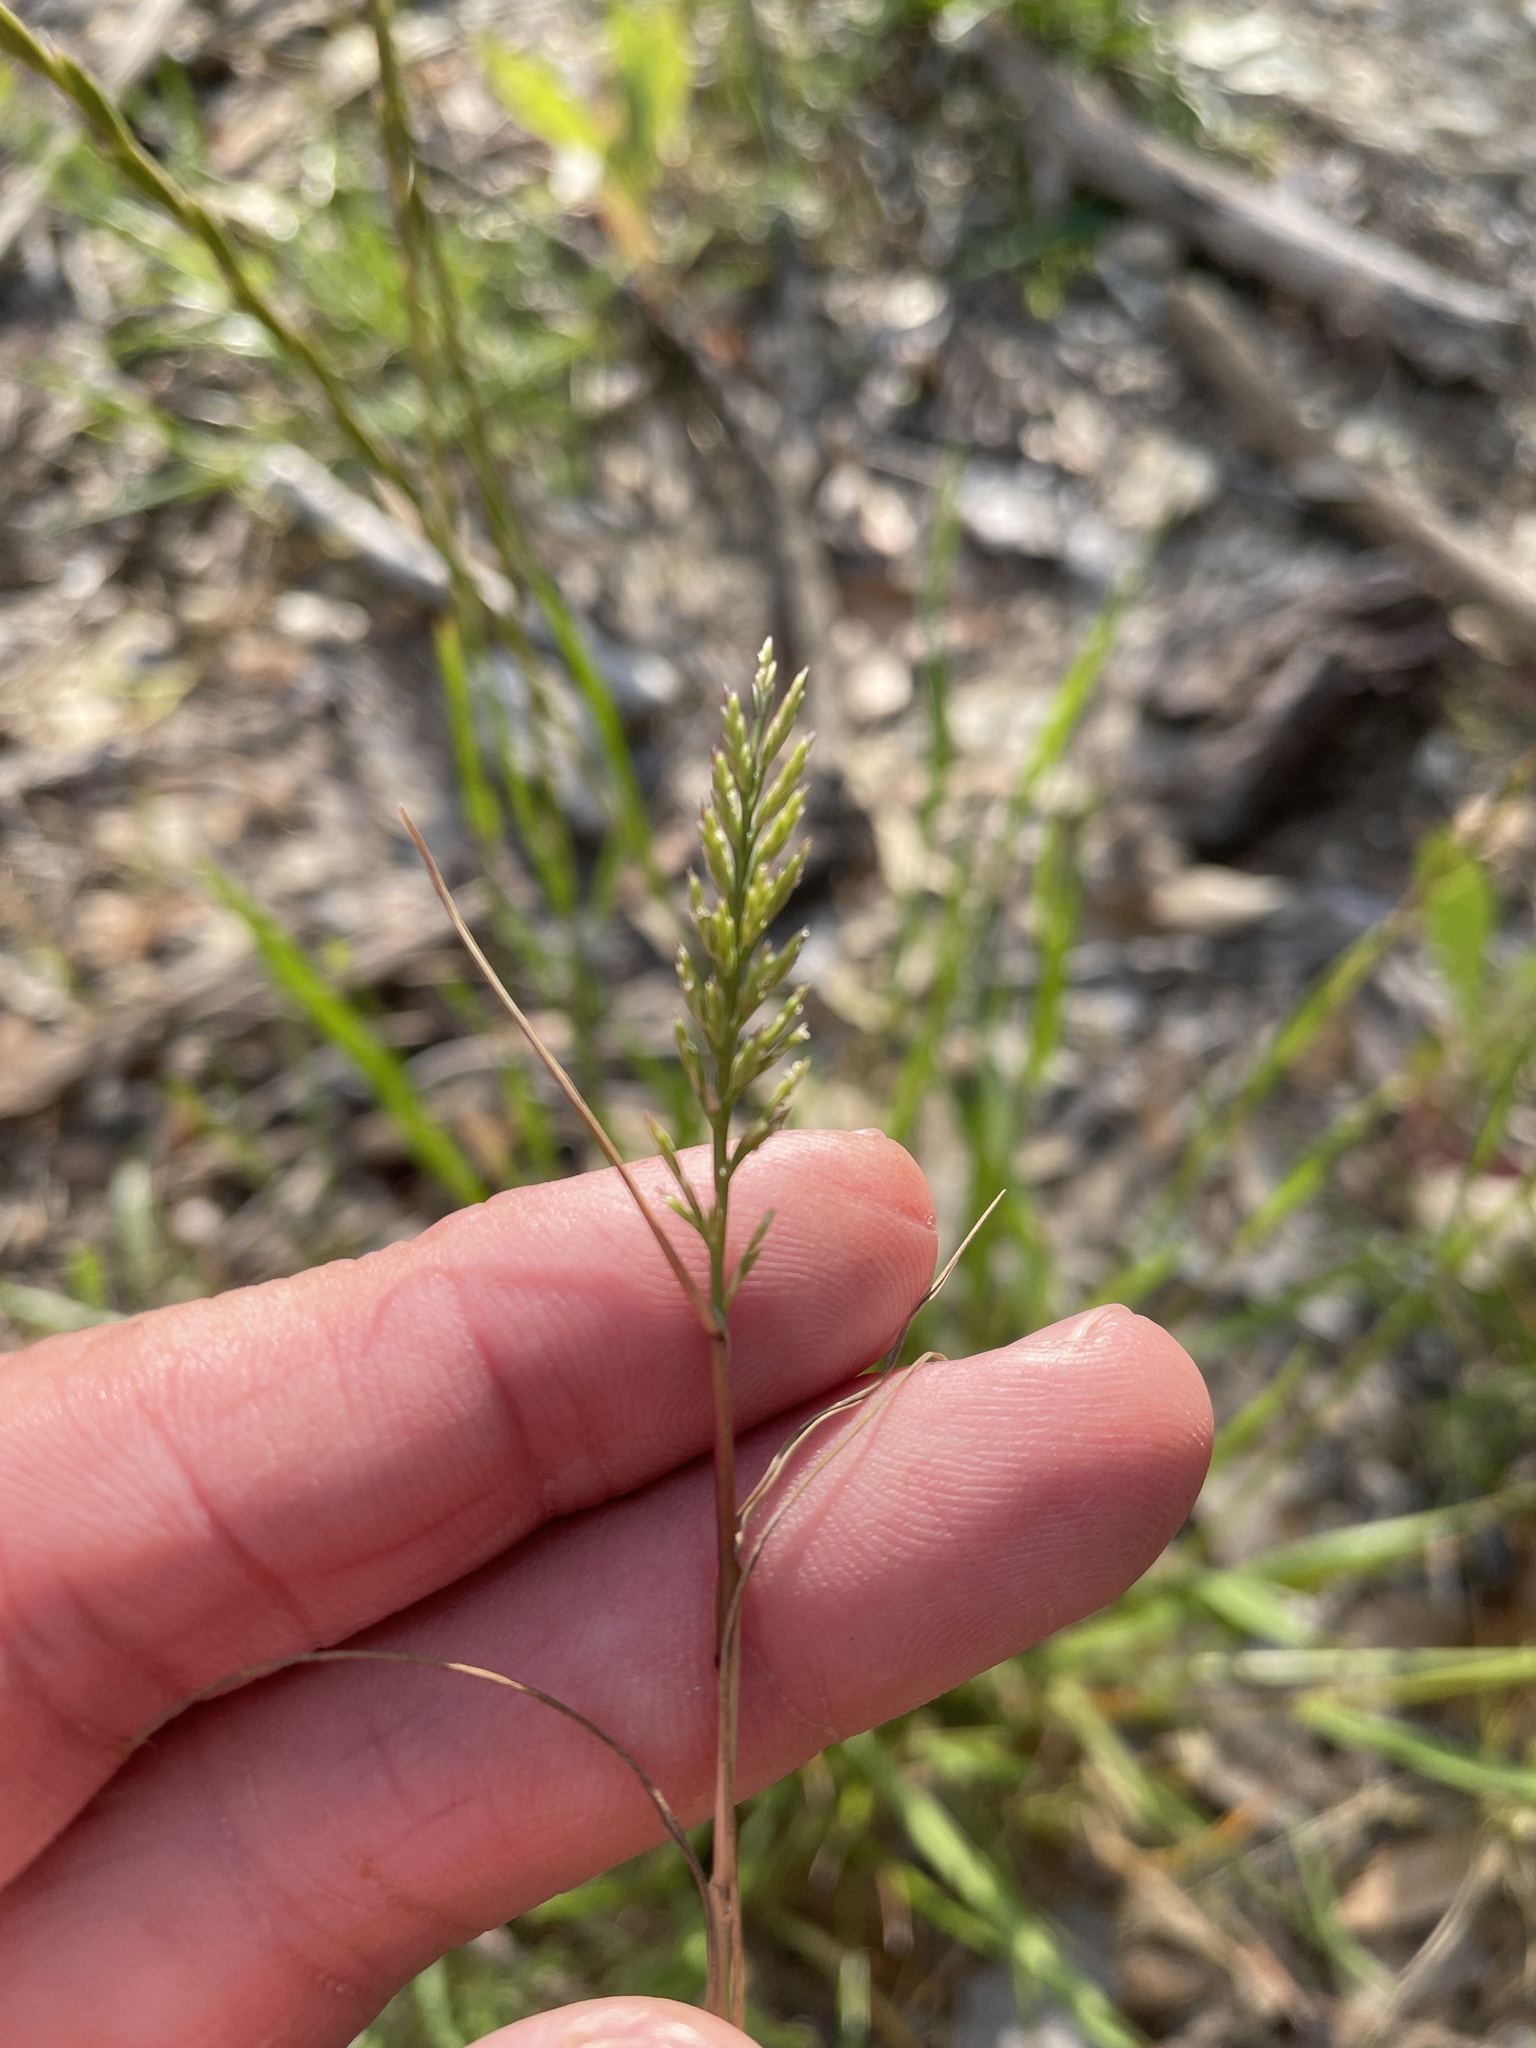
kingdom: Plantae
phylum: Tracheophyta
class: Liliopsida
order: Poales
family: Poaceae
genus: Catapodium
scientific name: Catapodium rigidum
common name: Fern-grass
